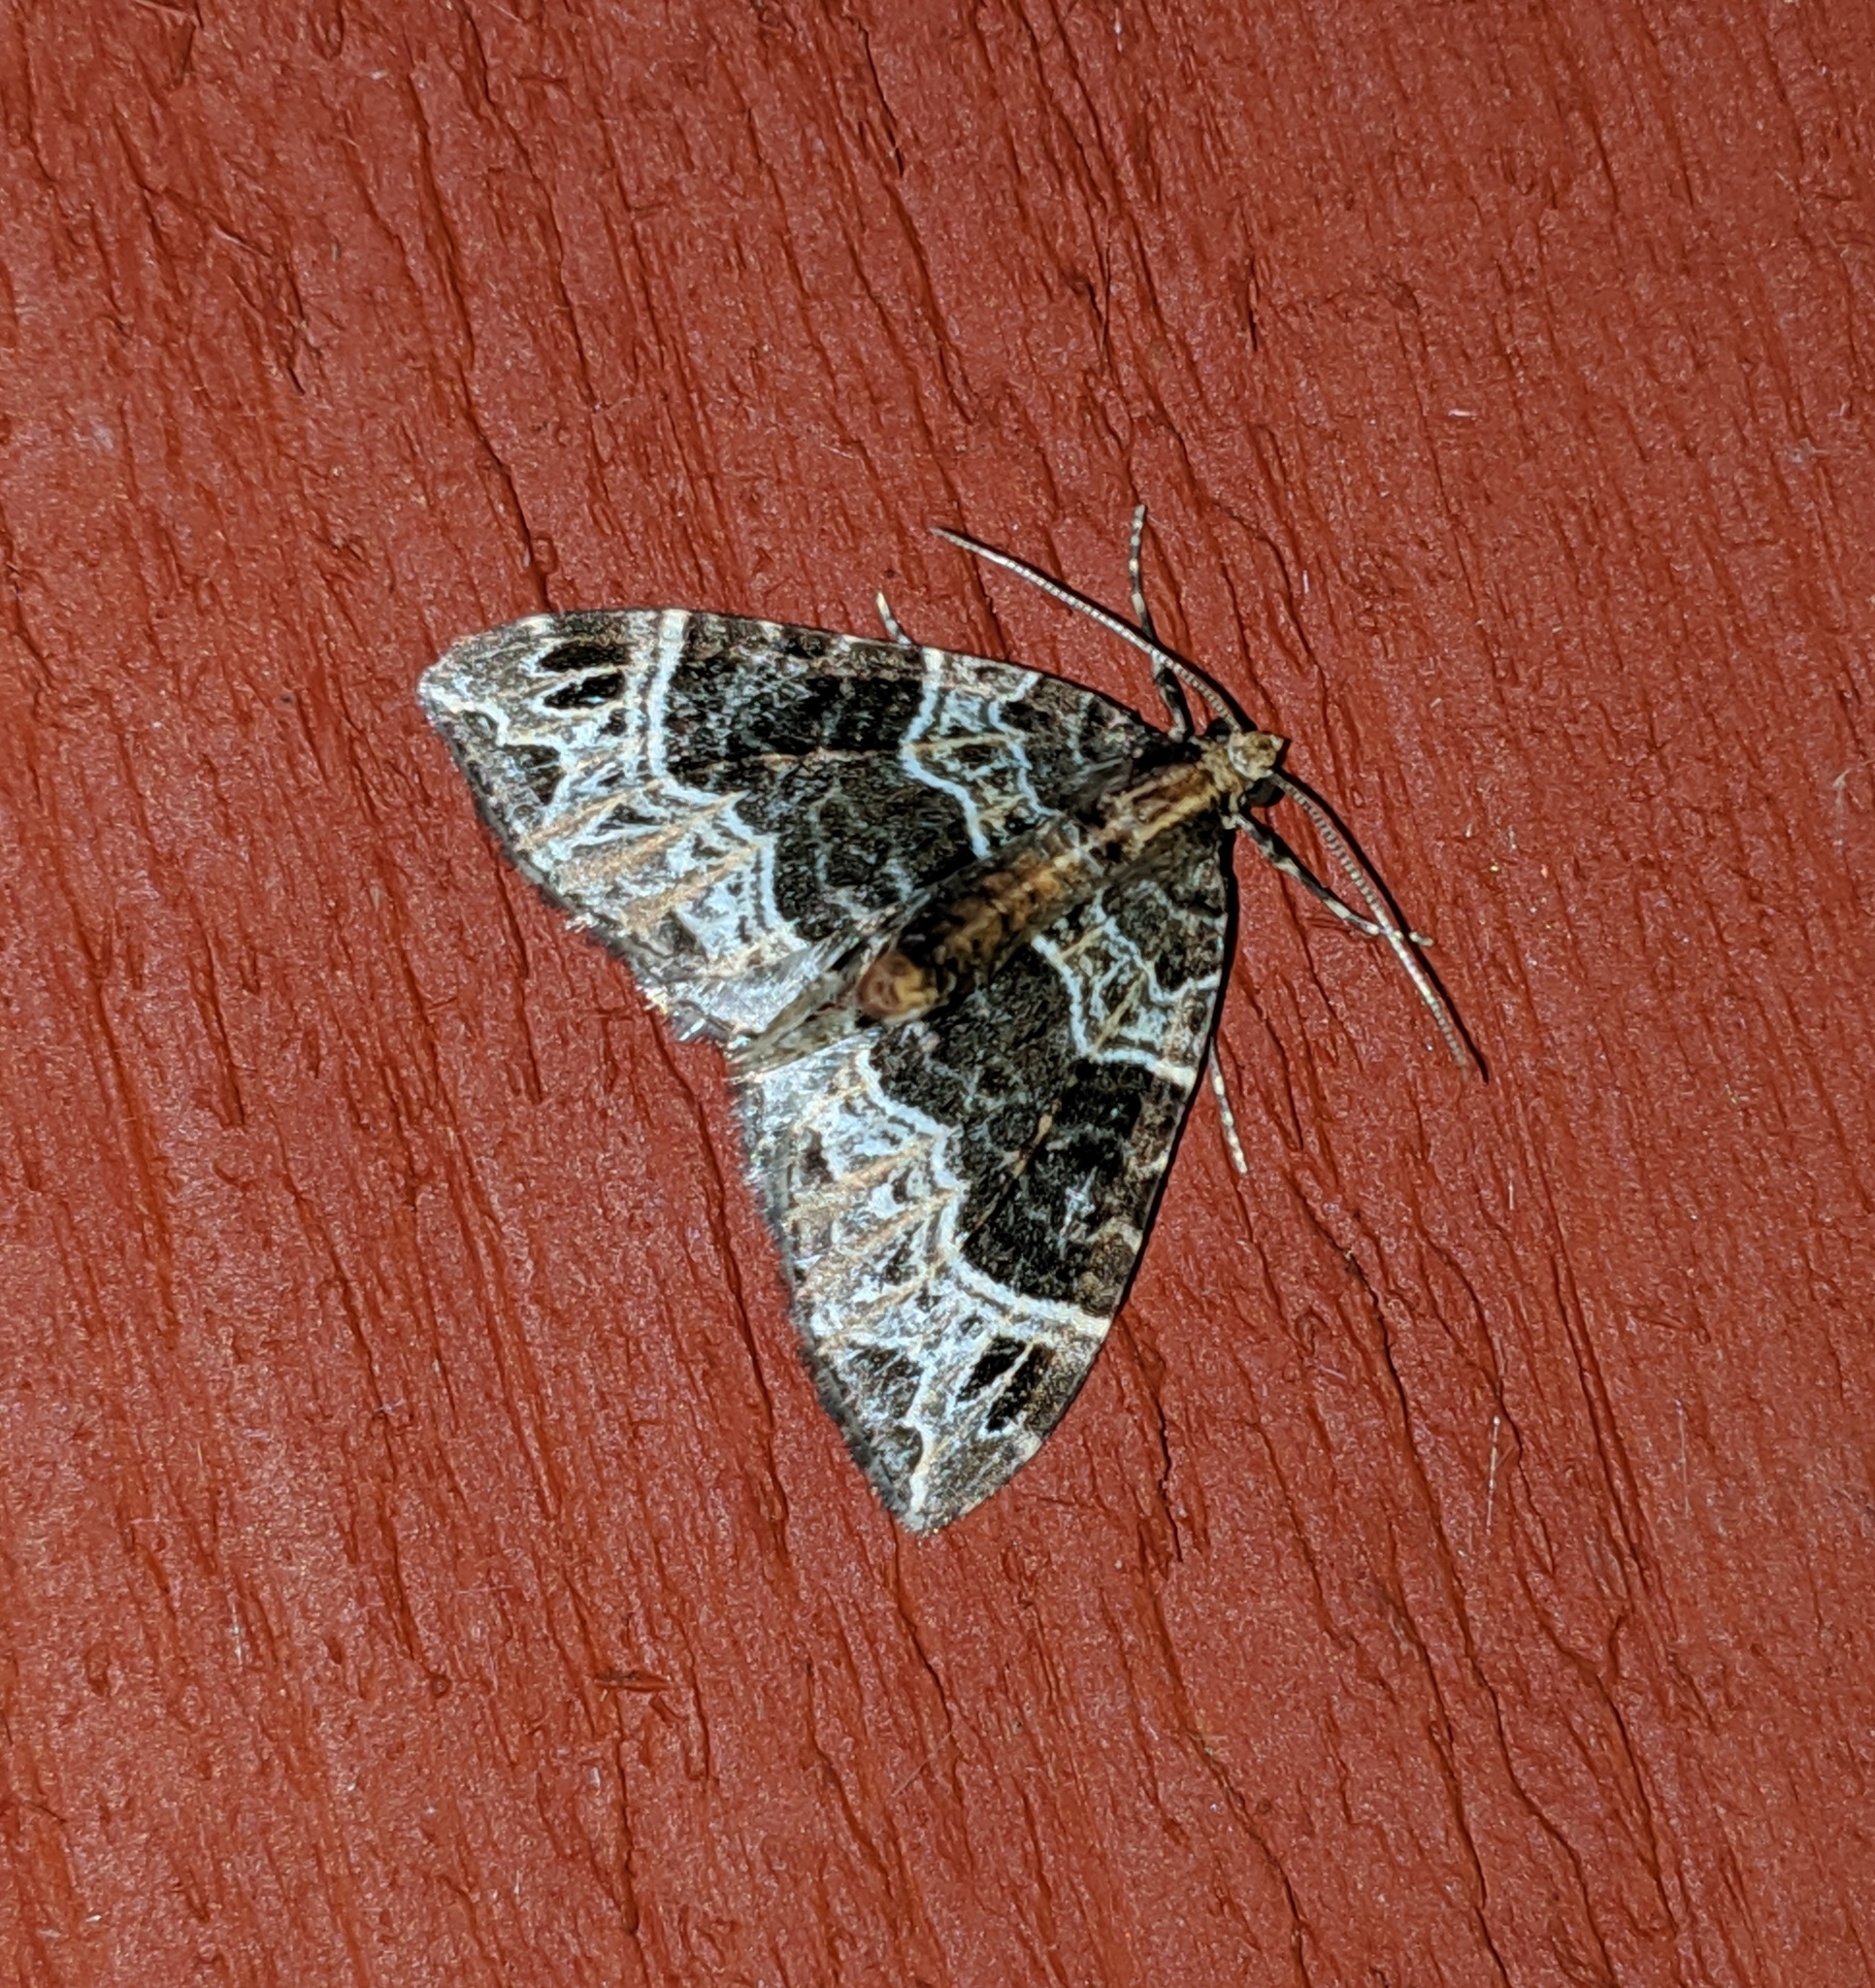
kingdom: Animalia
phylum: Arthropoda
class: Insecta
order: Lepidoptera
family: Geometridae
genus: Ecliptopera
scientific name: Ecliptopera silaceata
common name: Small phoenix
